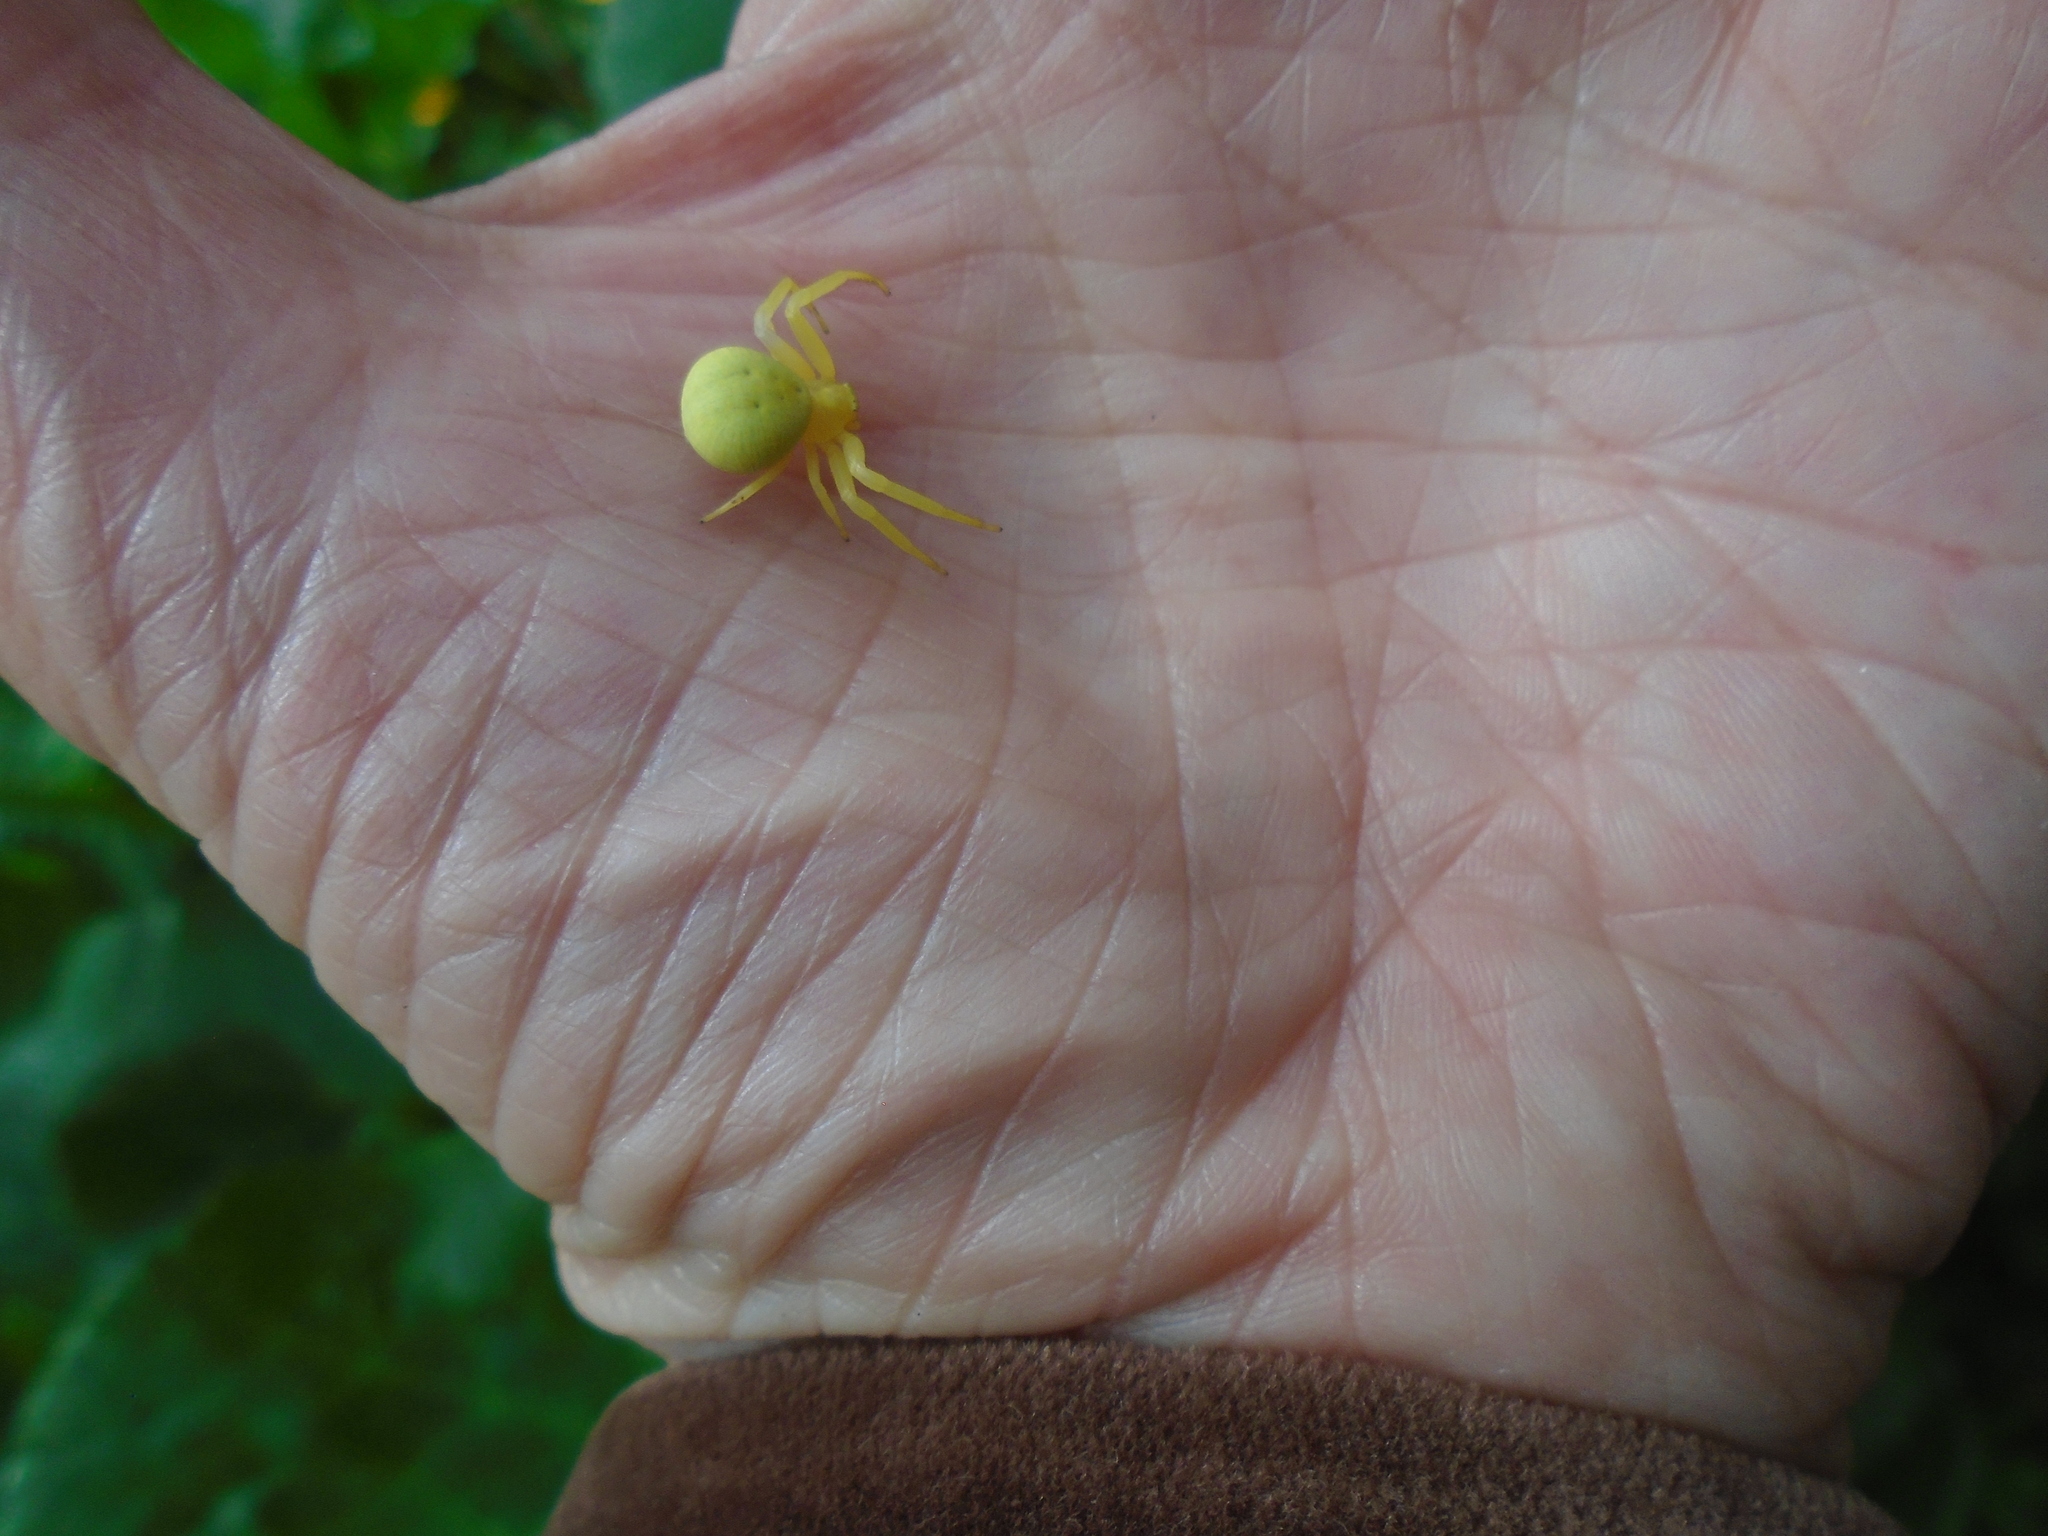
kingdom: Animalia
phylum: Arthropoda
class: Arachnida
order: Araneae
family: Thomisidae
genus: Misumena
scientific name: Misumena vatia
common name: Goldenrod crab spider
